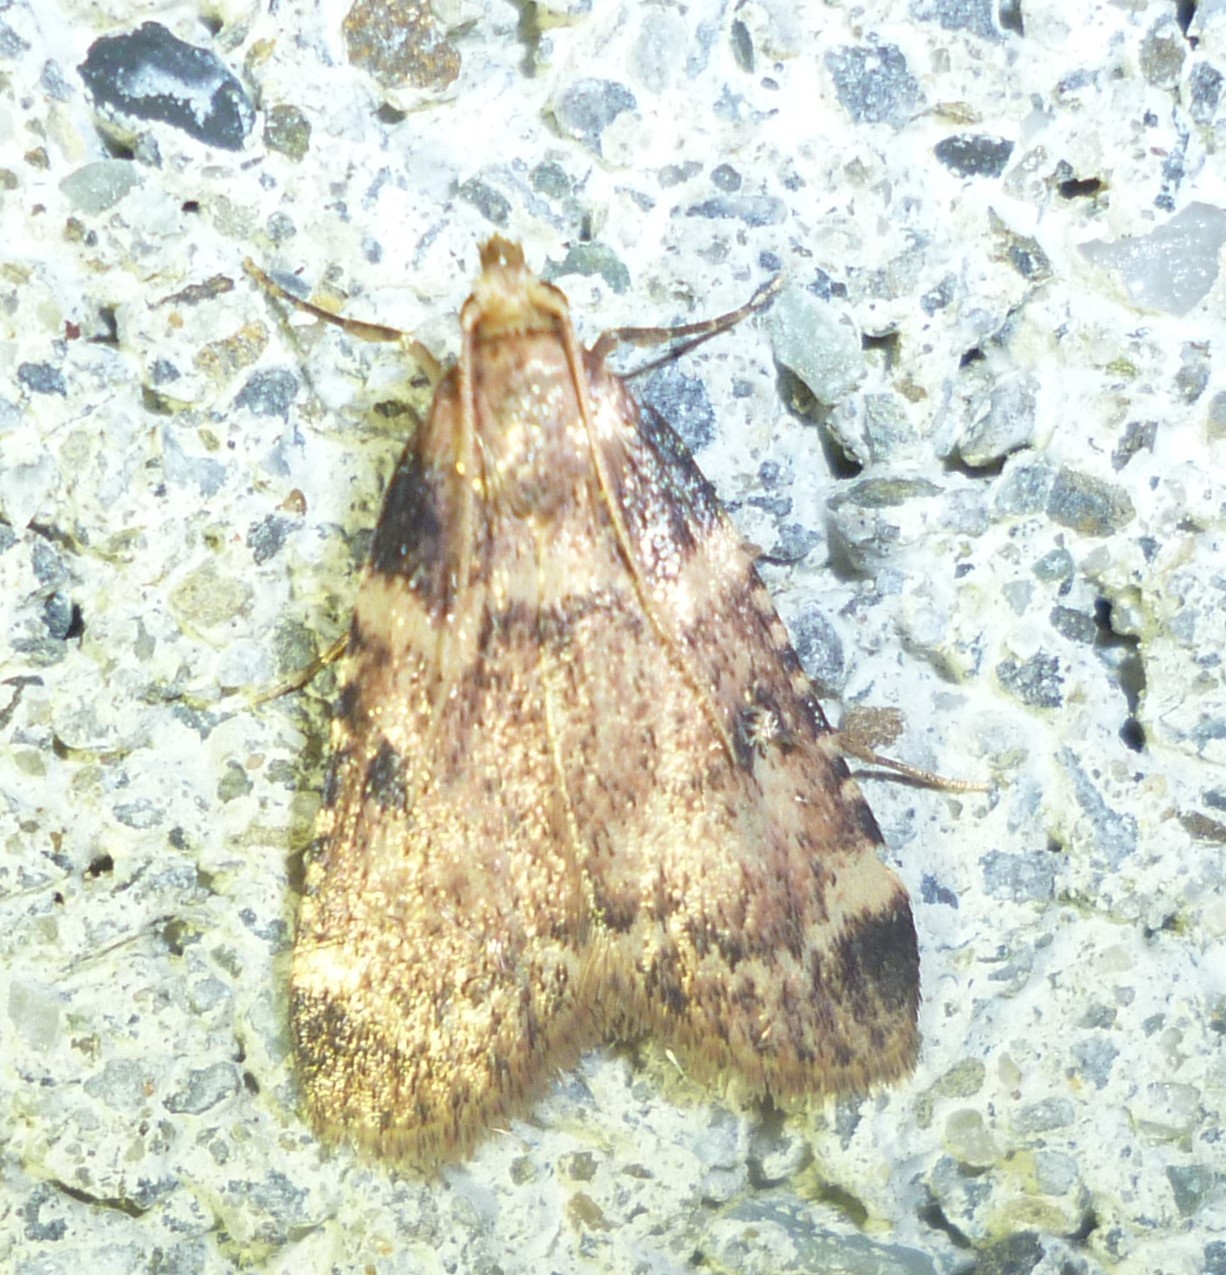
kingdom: Animalia
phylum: Arthropoda
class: Insecta
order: Lepidoptera
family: Pyralidae
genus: Aglossa
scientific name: Aglossa costiferalis
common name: Calico pyralid moth
